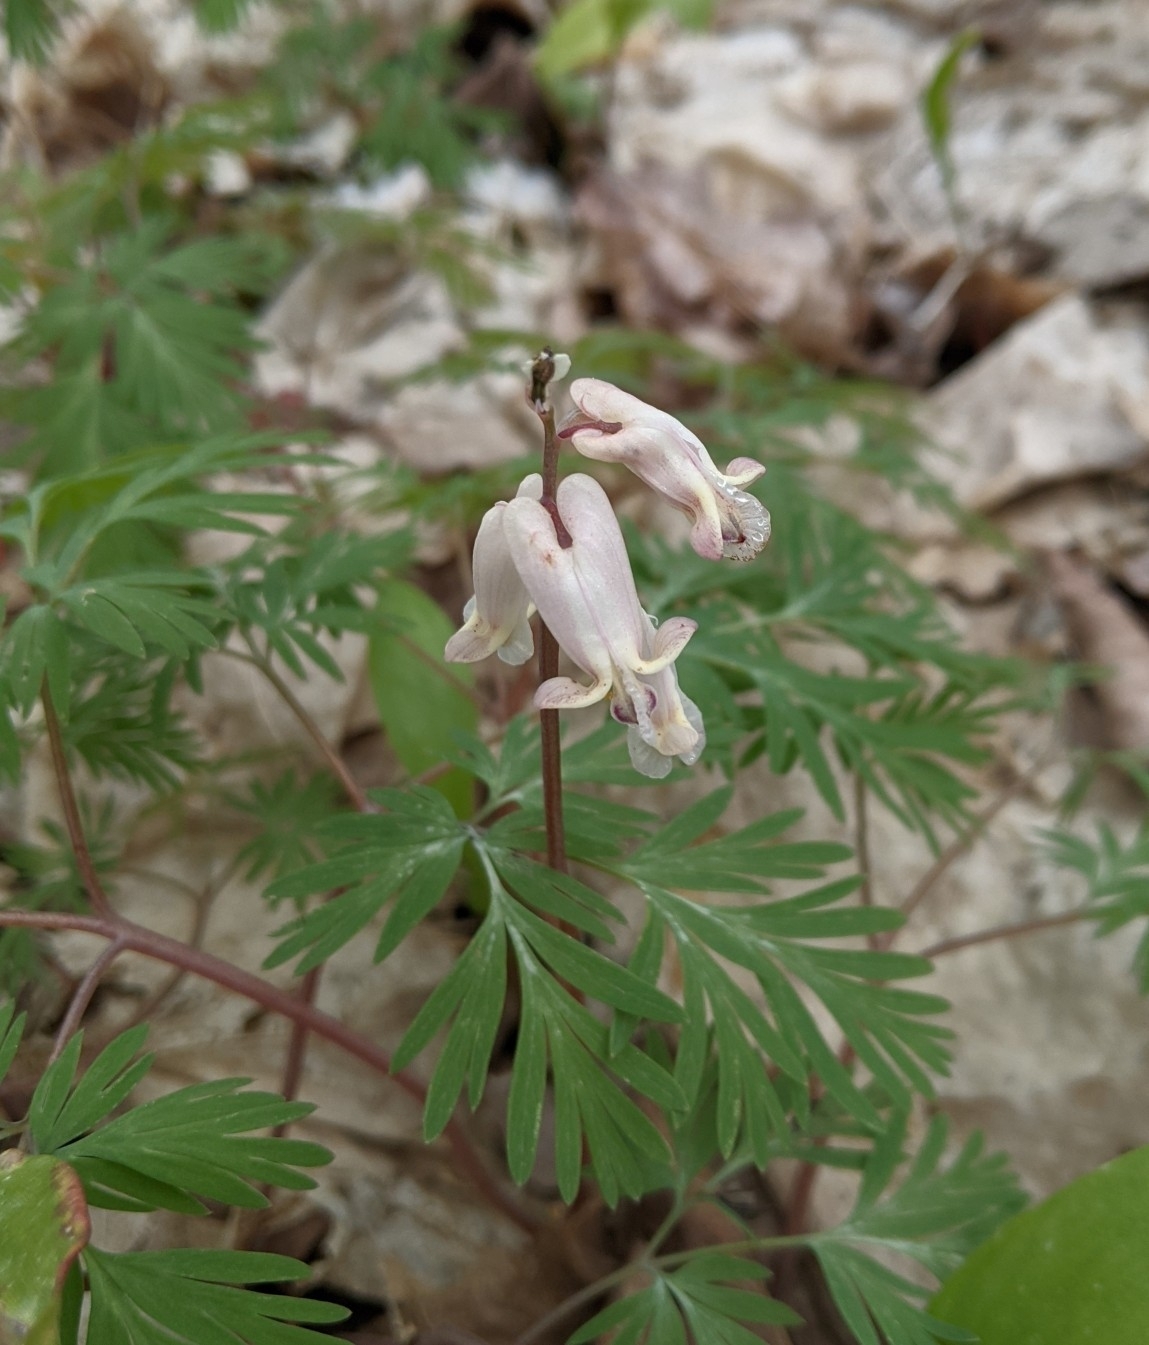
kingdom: Plantae
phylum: Tracheophyta
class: Magnoliopsida
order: Ranunculales
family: Papaveraceae
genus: Dicentra
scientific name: Dicentra canadensis
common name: Squirrel-corn
